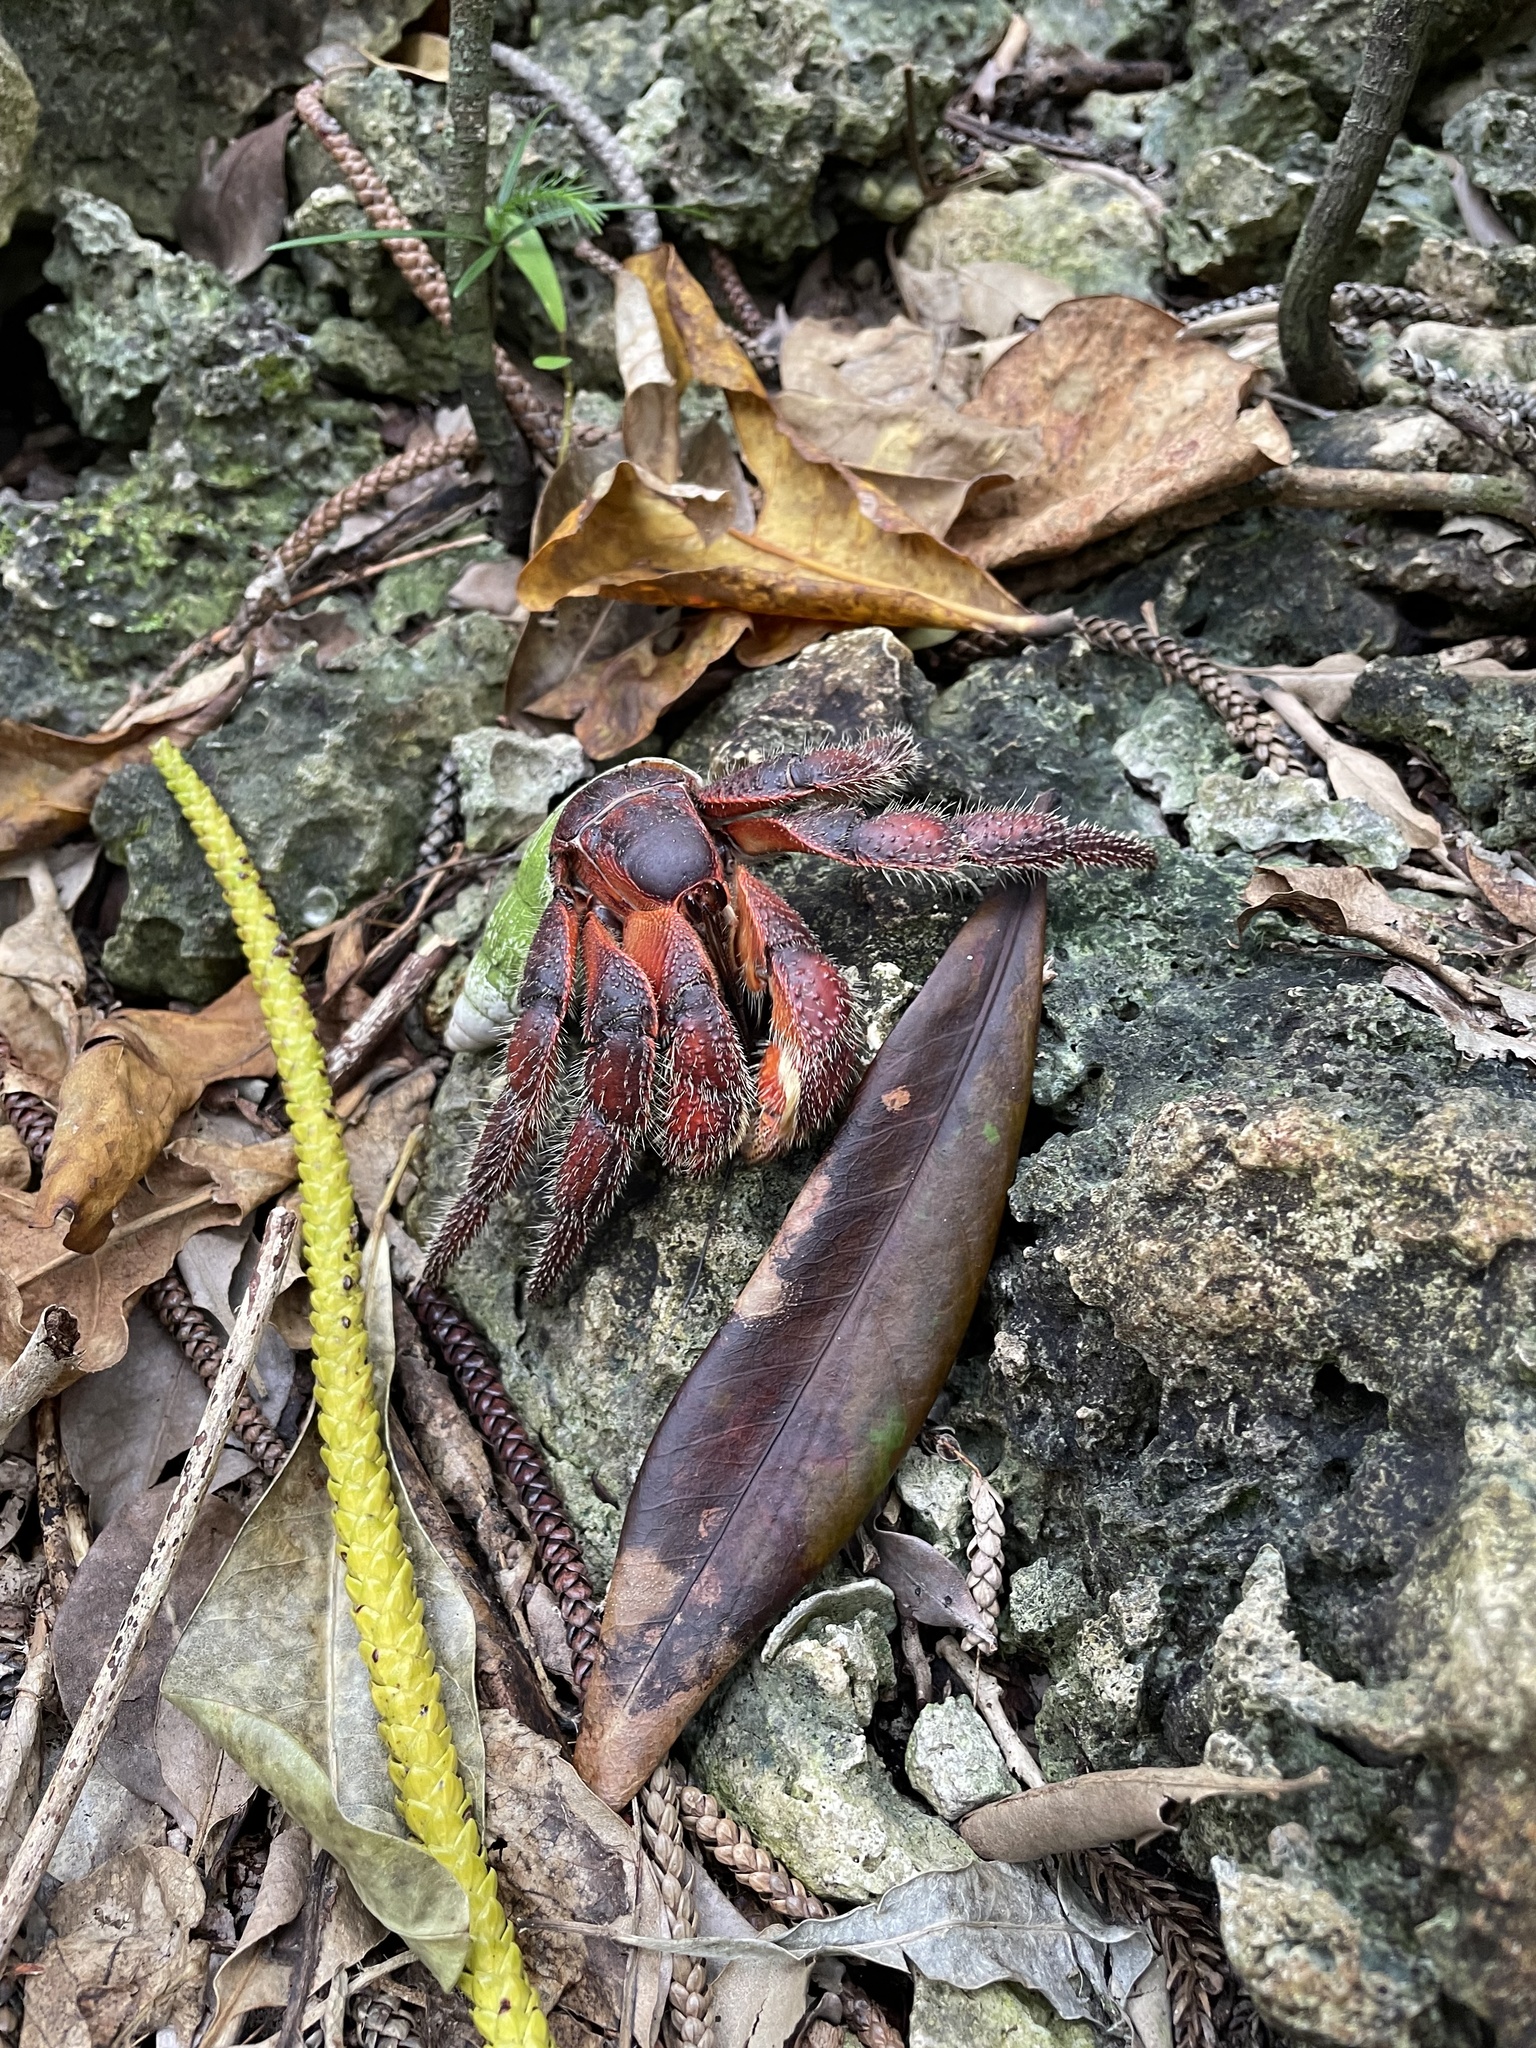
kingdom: Animalia
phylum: Arthropoda
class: Malacostraca
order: Decapoda
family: Coenobitidae
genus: Coenobita
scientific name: Coenobita spinosus
